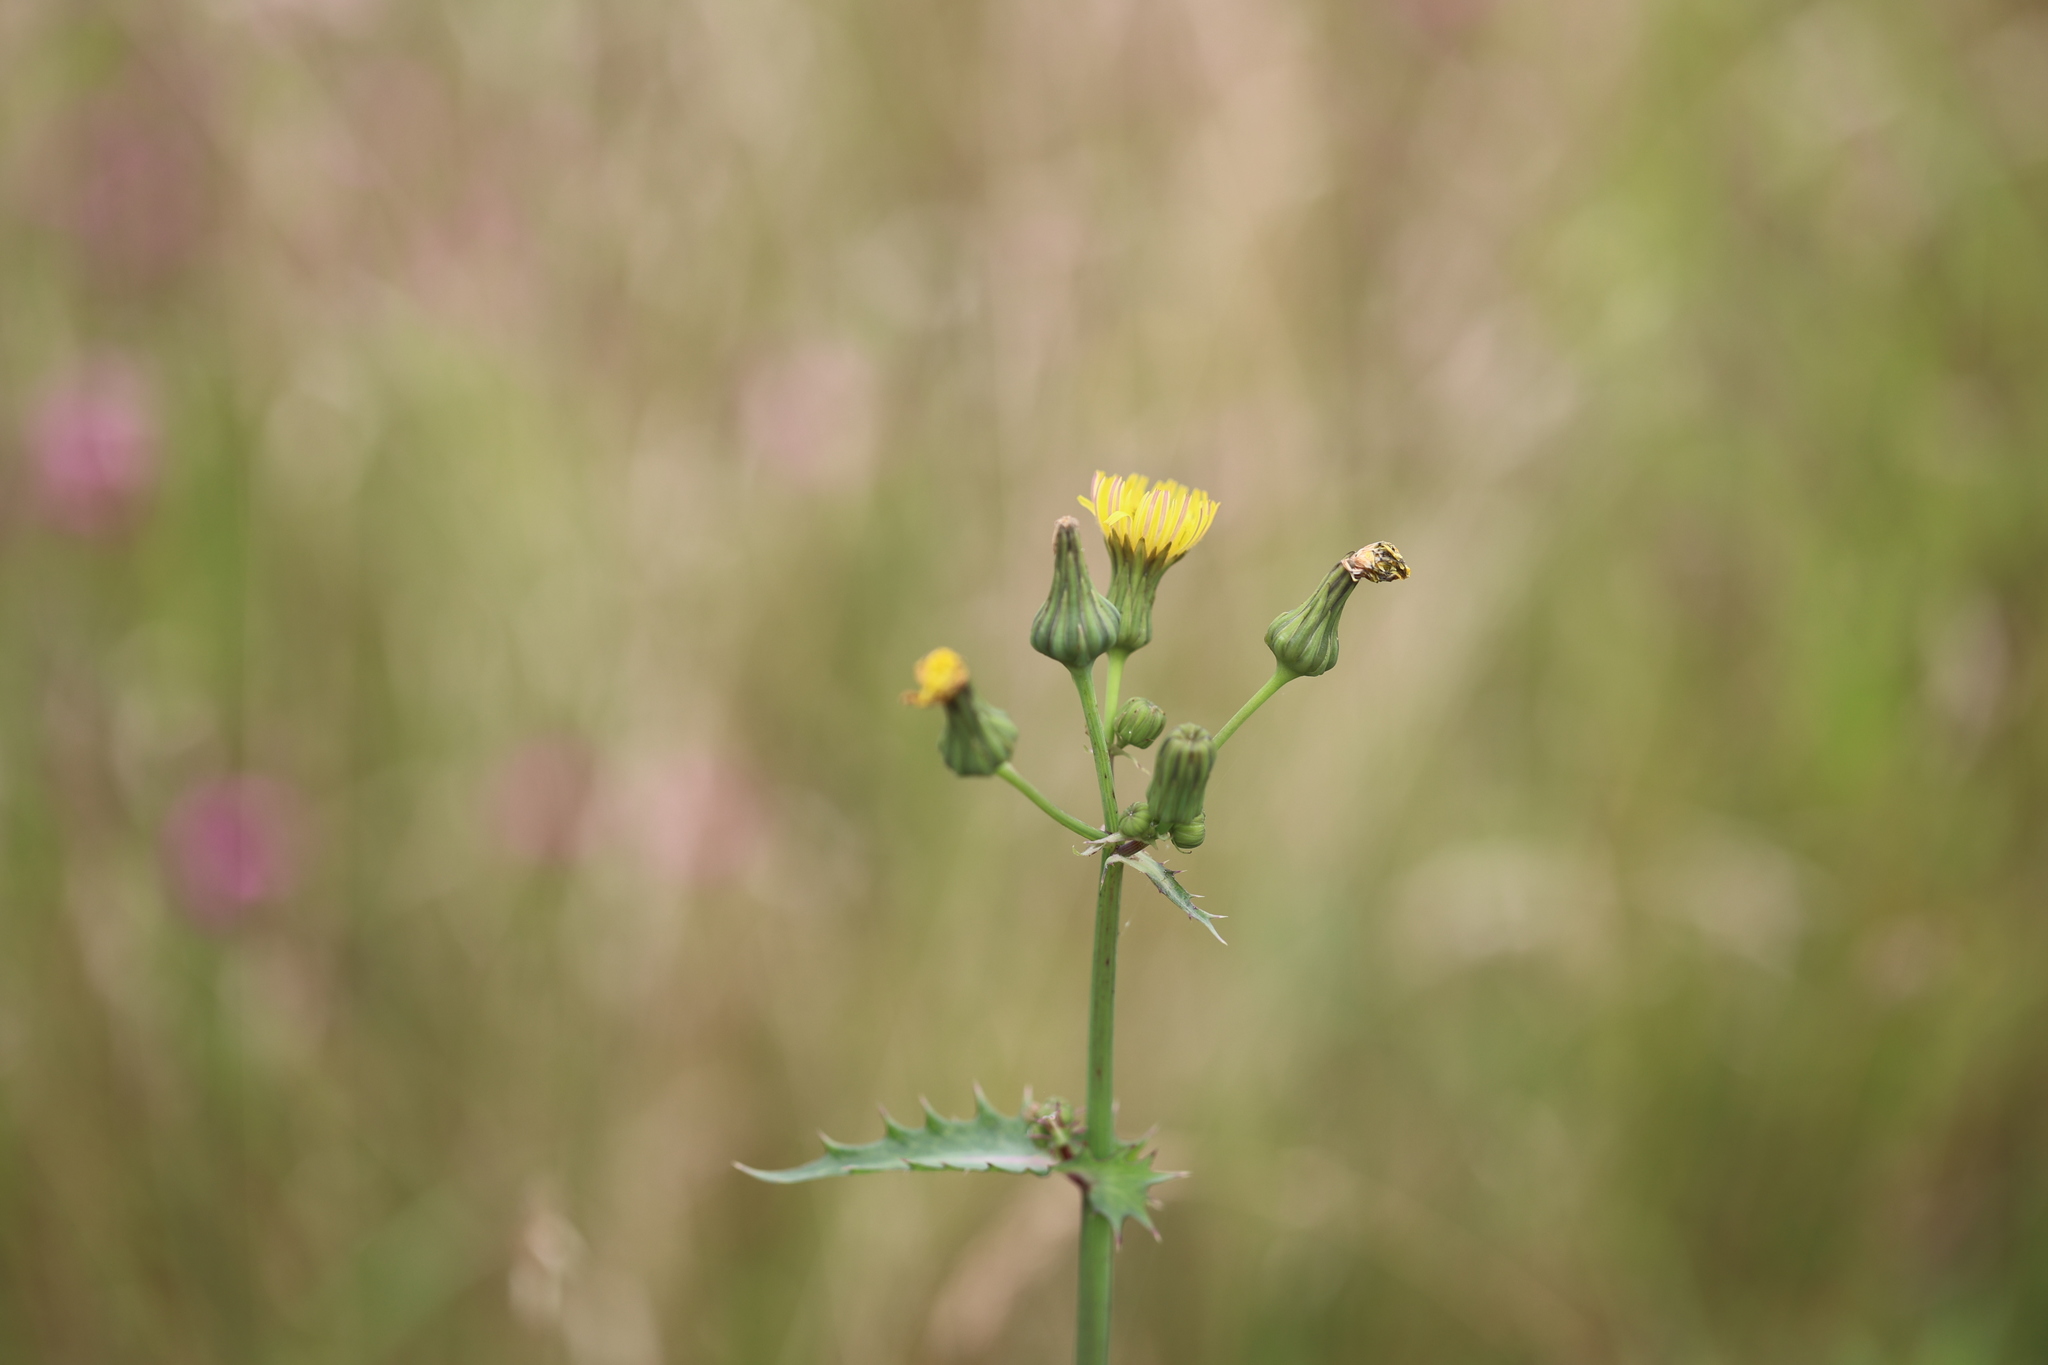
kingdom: Plantae
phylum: Tracheophyta
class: Magnoliopsida
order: Asterales
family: Asteraceae
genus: Sonchus
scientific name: Sonchus asper
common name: Prickly sow-thistle
